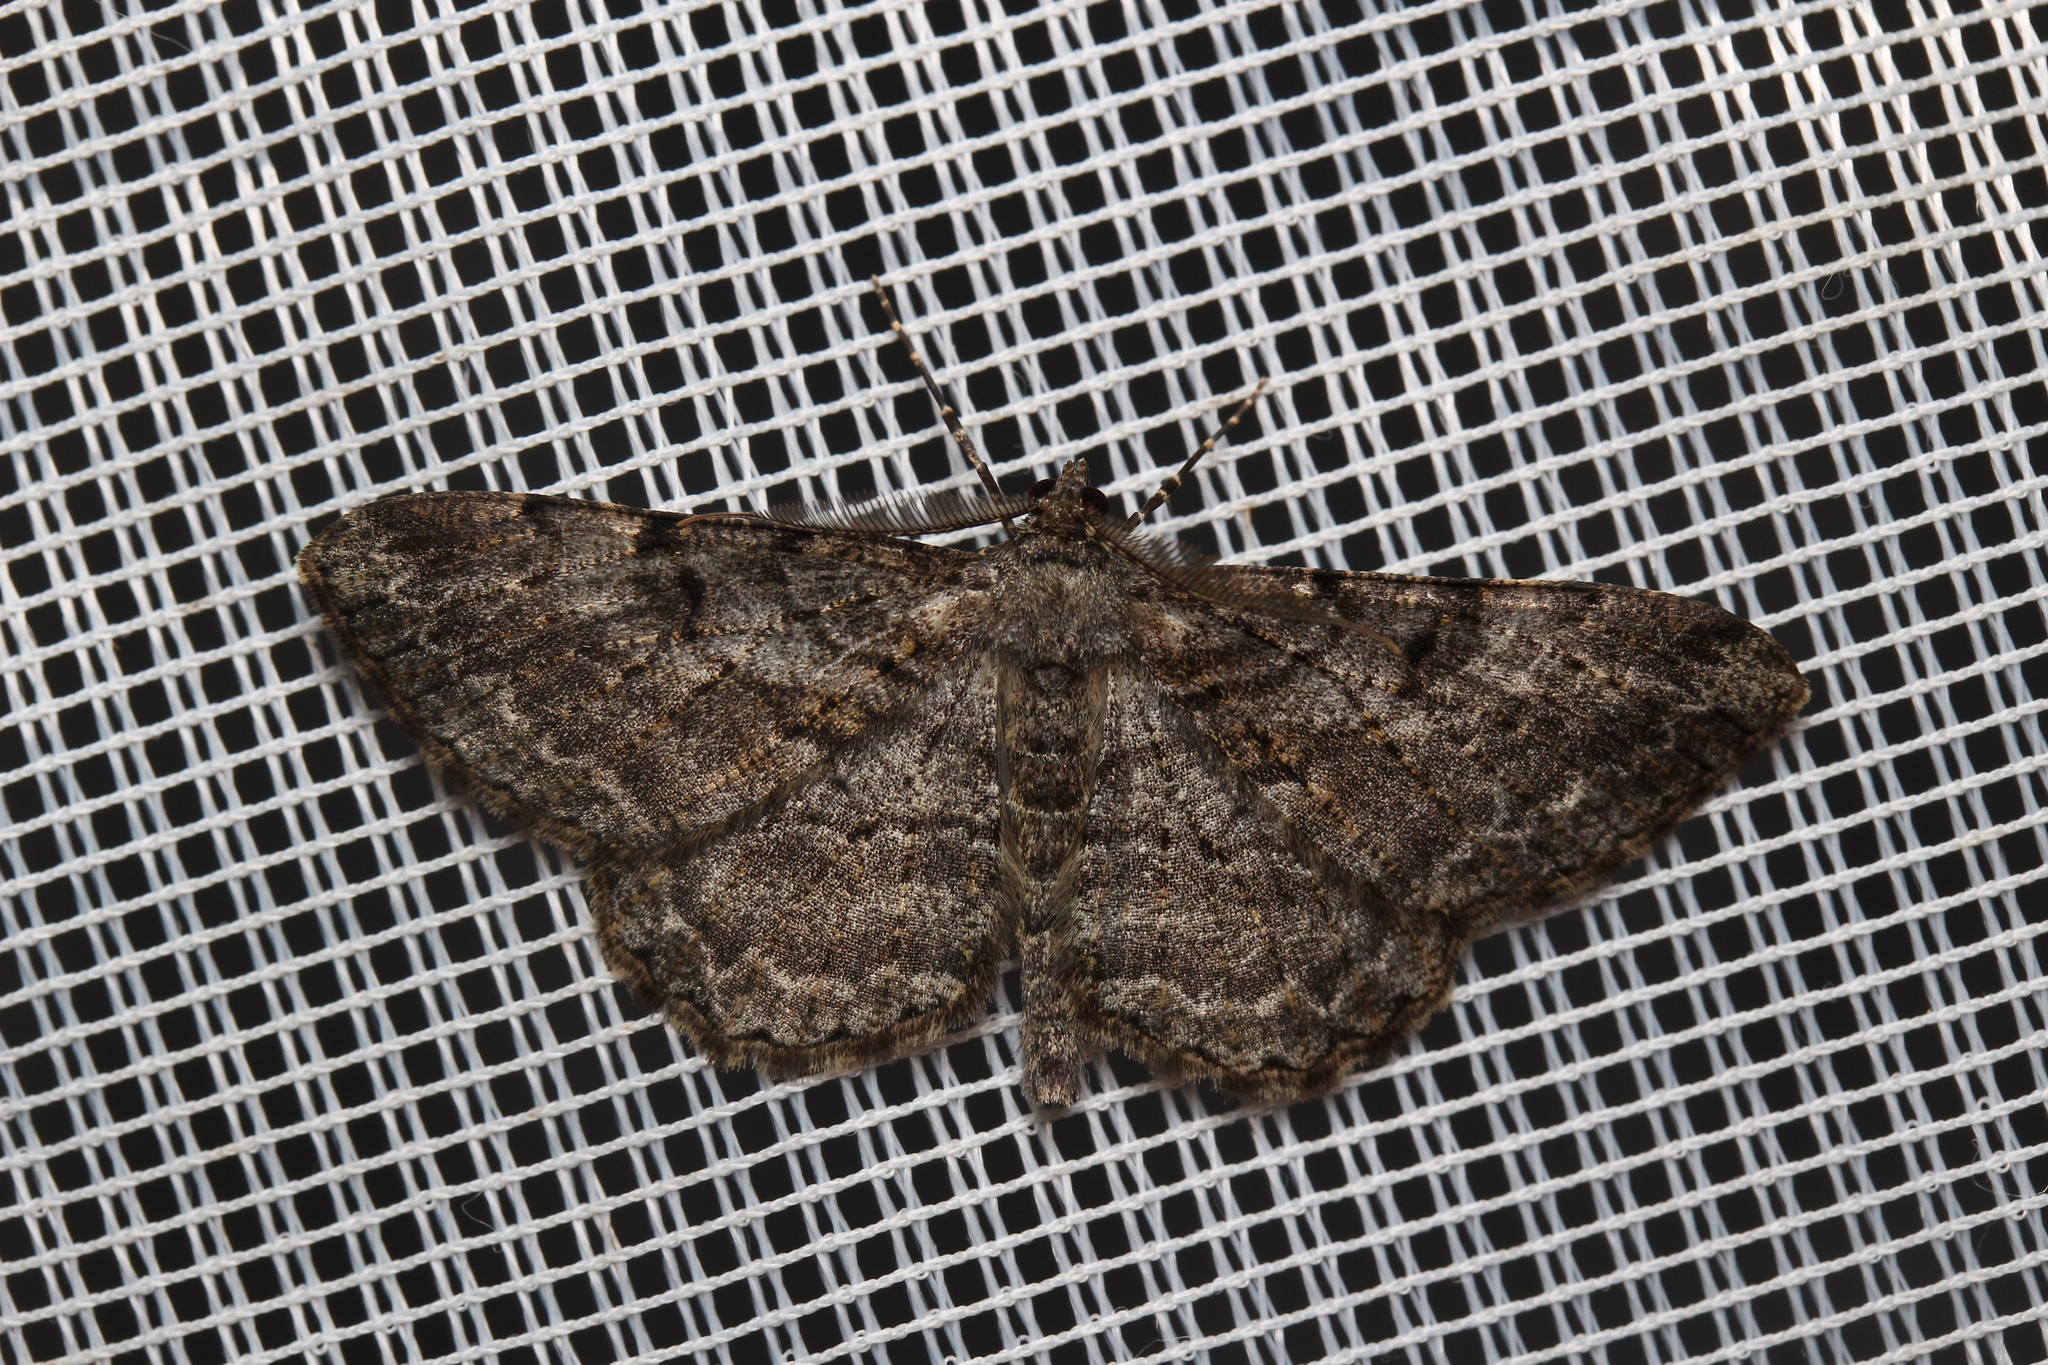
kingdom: Animalia
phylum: Arthropoda
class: Insecta
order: Lepidoptera
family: Geometridae
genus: Peribatodes
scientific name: Peribatodes rhomboidaria
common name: Willow beauty
